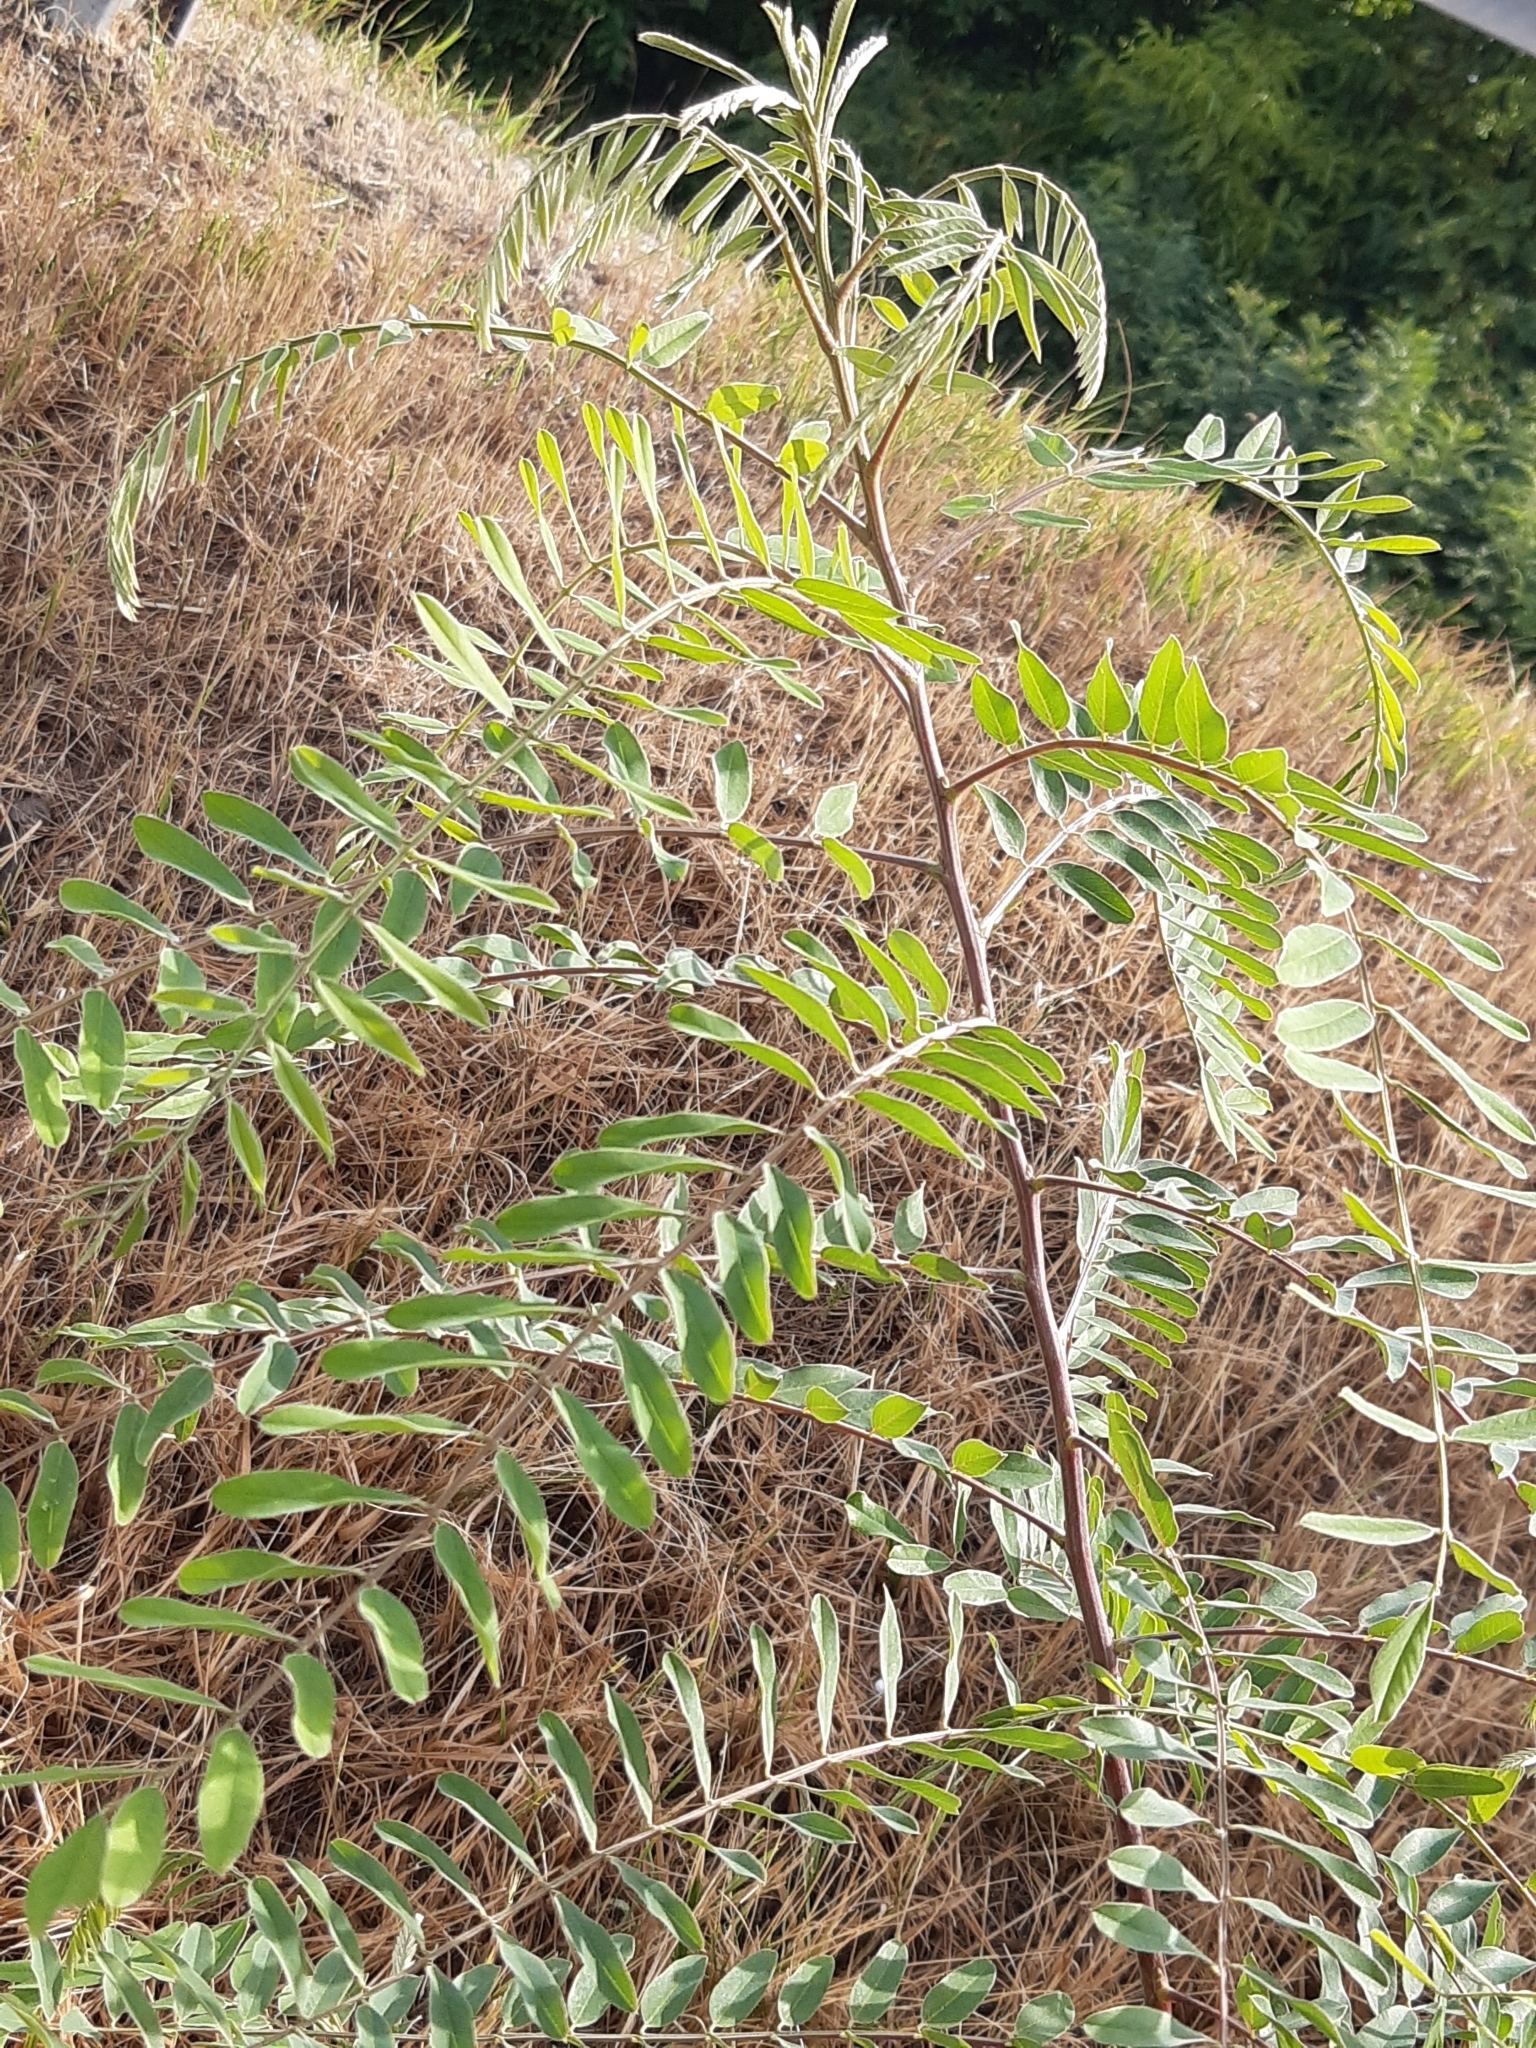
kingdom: Plantae
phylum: Tracheophyta
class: Magnoliopsida
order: Fabales
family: Fabaceae
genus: Amorpha
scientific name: Amorpha fruticosa
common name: False indigo
